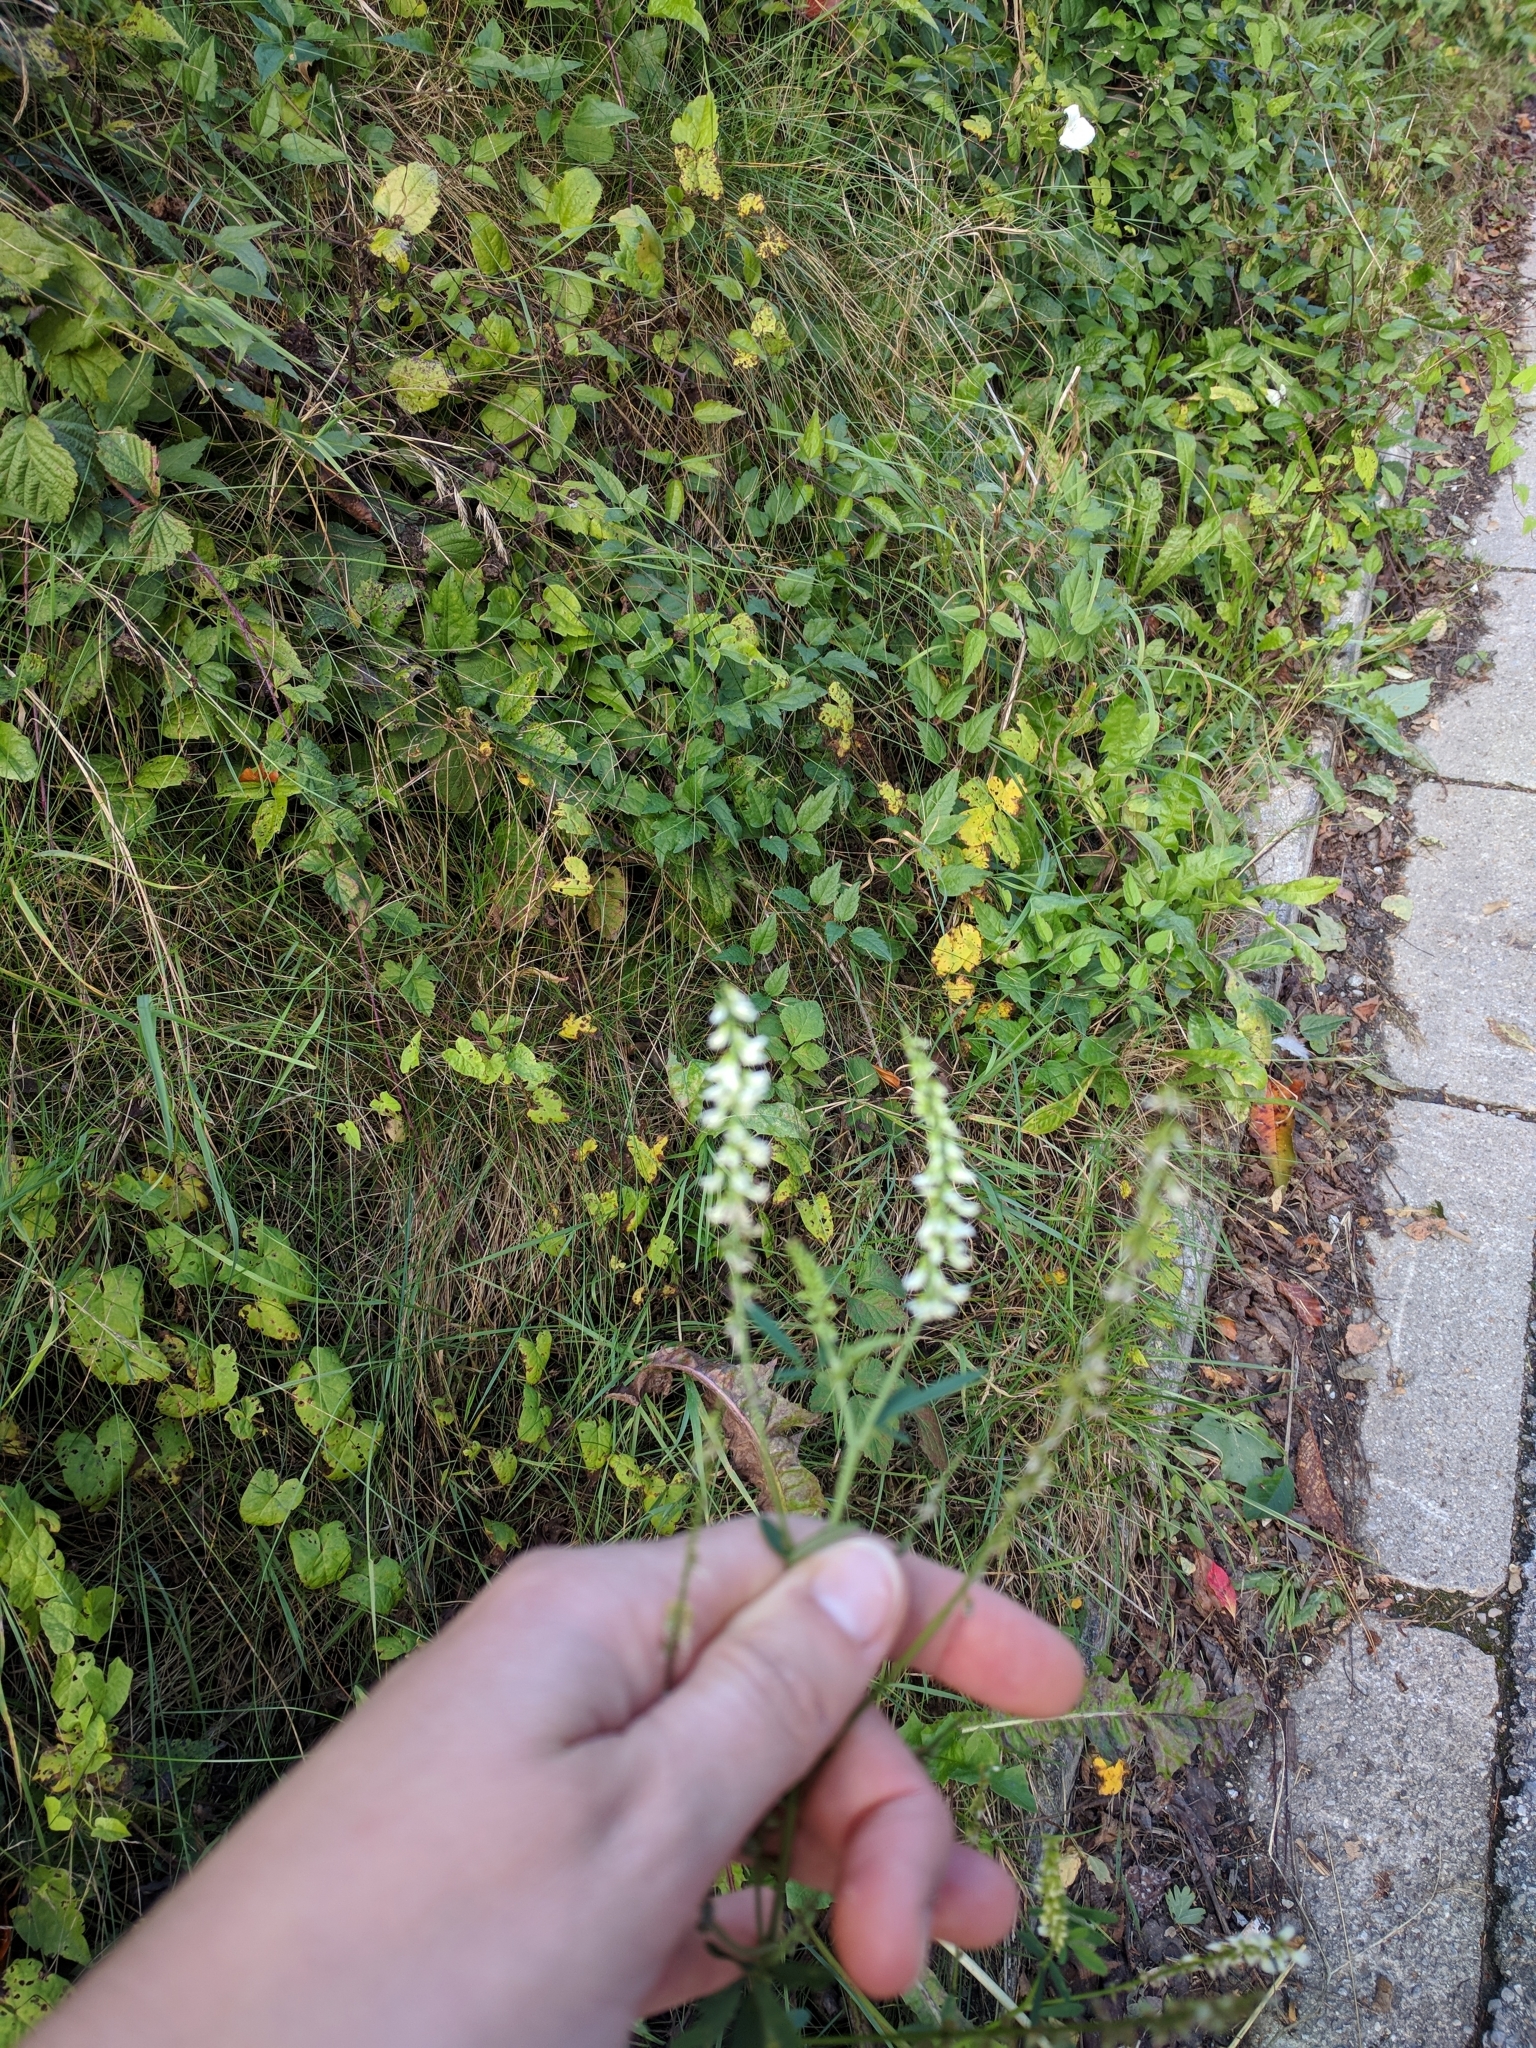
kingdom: Plantae
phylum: Tracheophyta
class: Magnoliopsida
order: Fabales
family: Fabaceae
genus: Melilotus
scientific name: Melilotus albus
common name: White melilot
